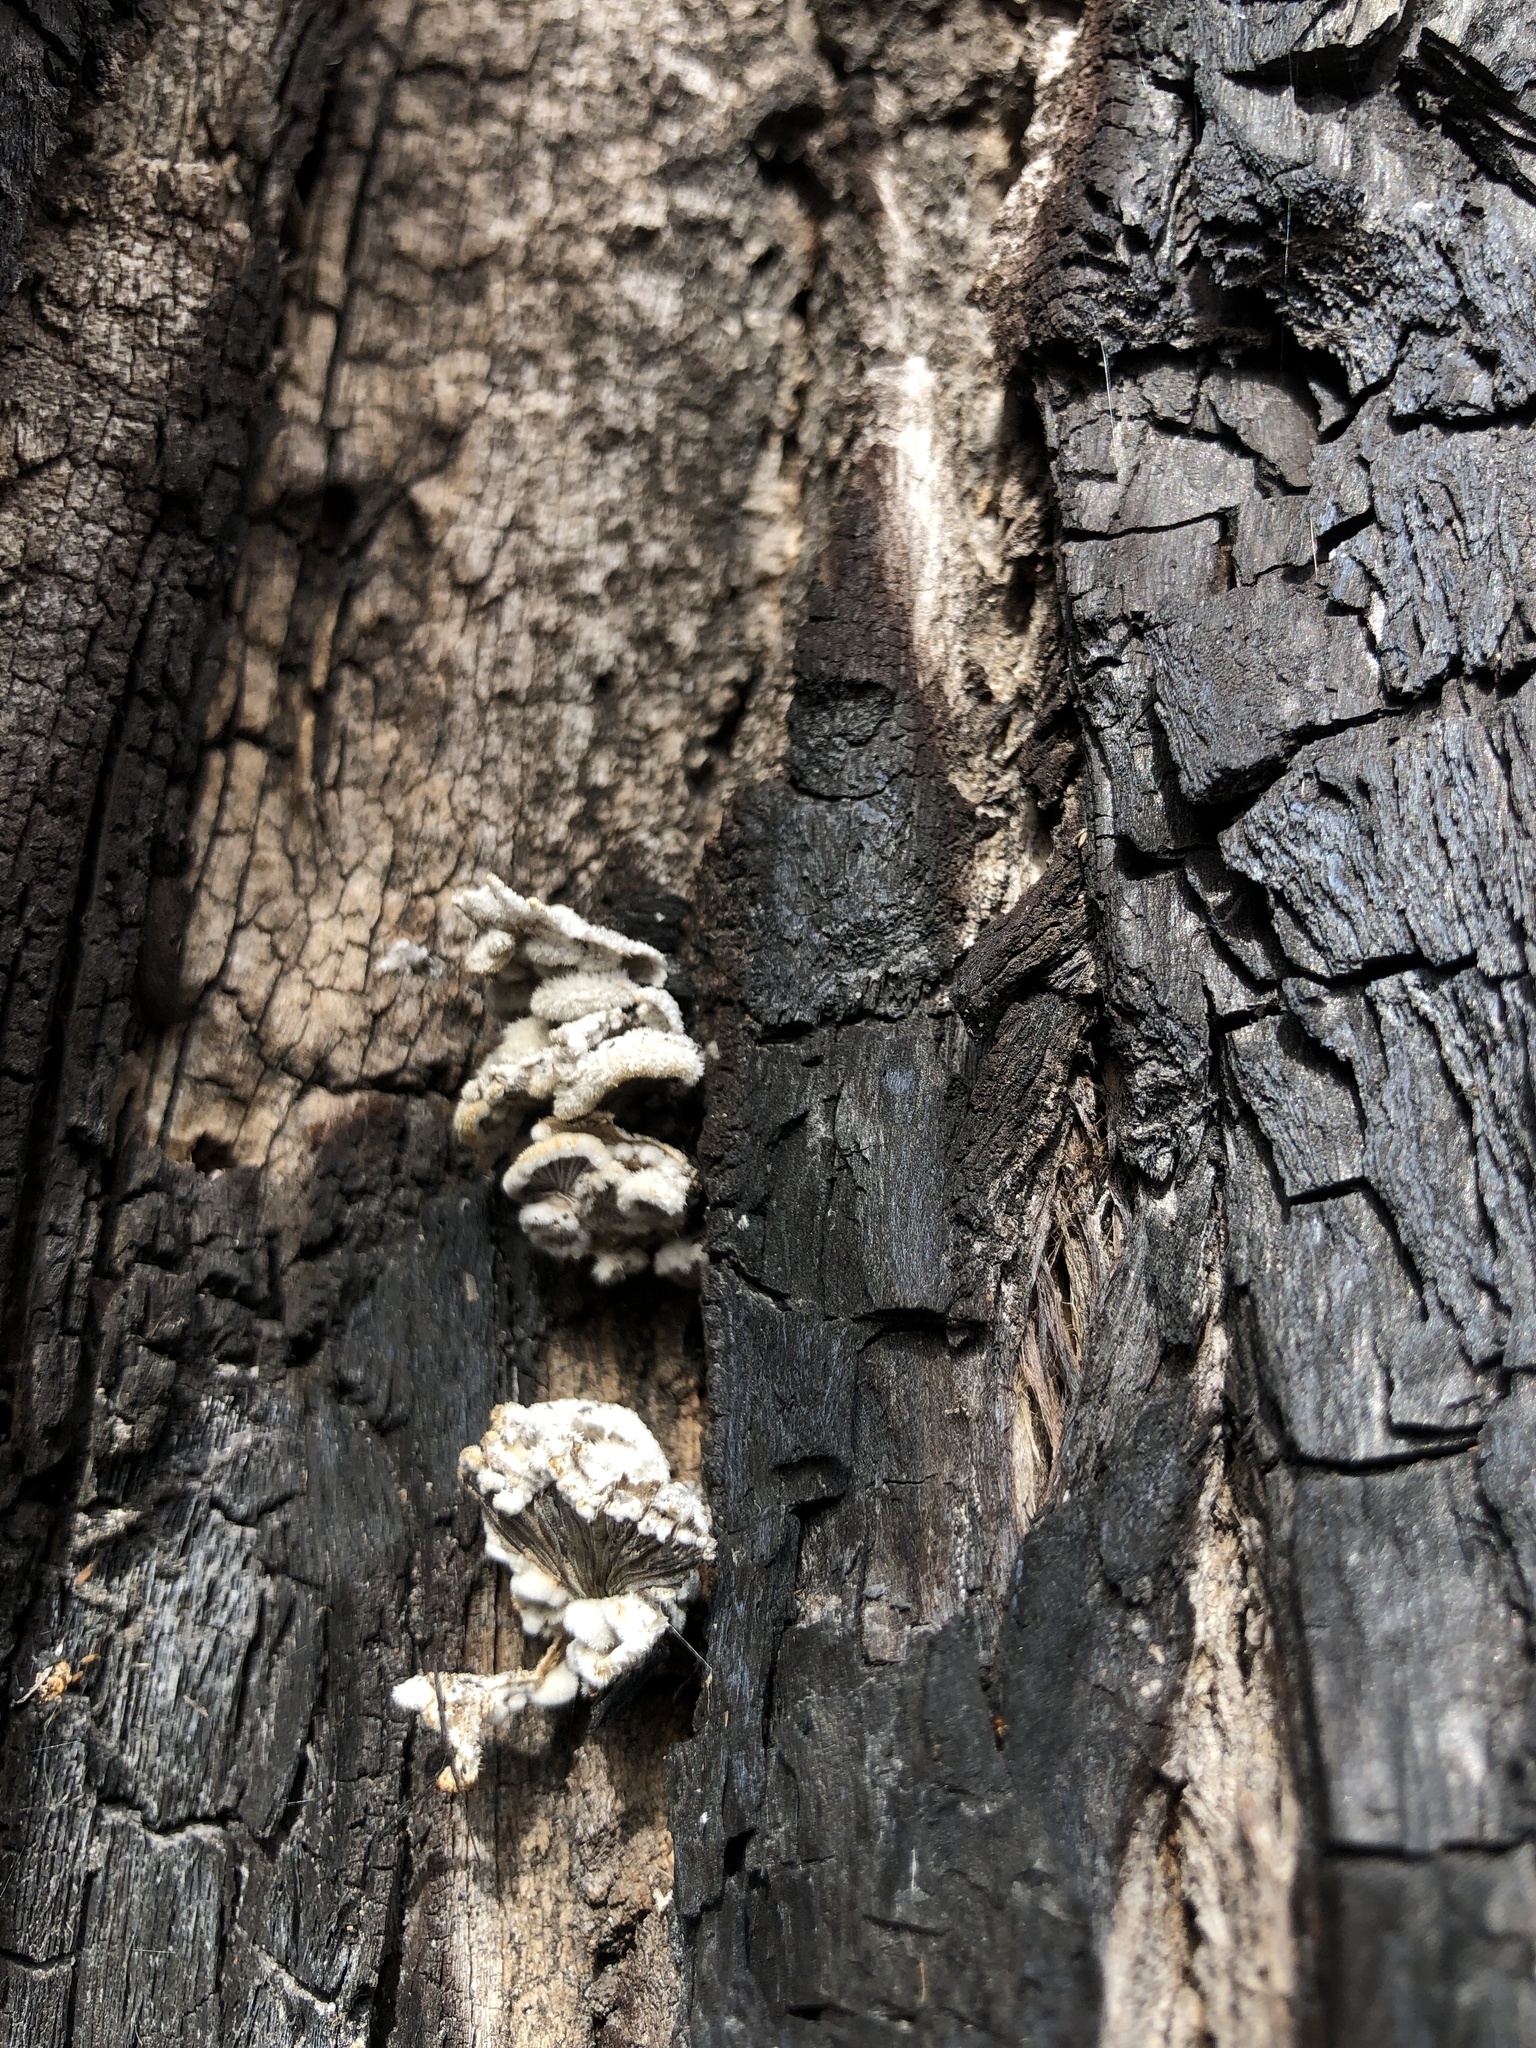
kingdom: Fungi
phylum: Basidiomycota
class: Agaricomycetes
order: Agaricales
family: Schizophyllaceae
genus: Schizophyllum
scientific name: Schizophyllum commune
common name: Common porecrust
